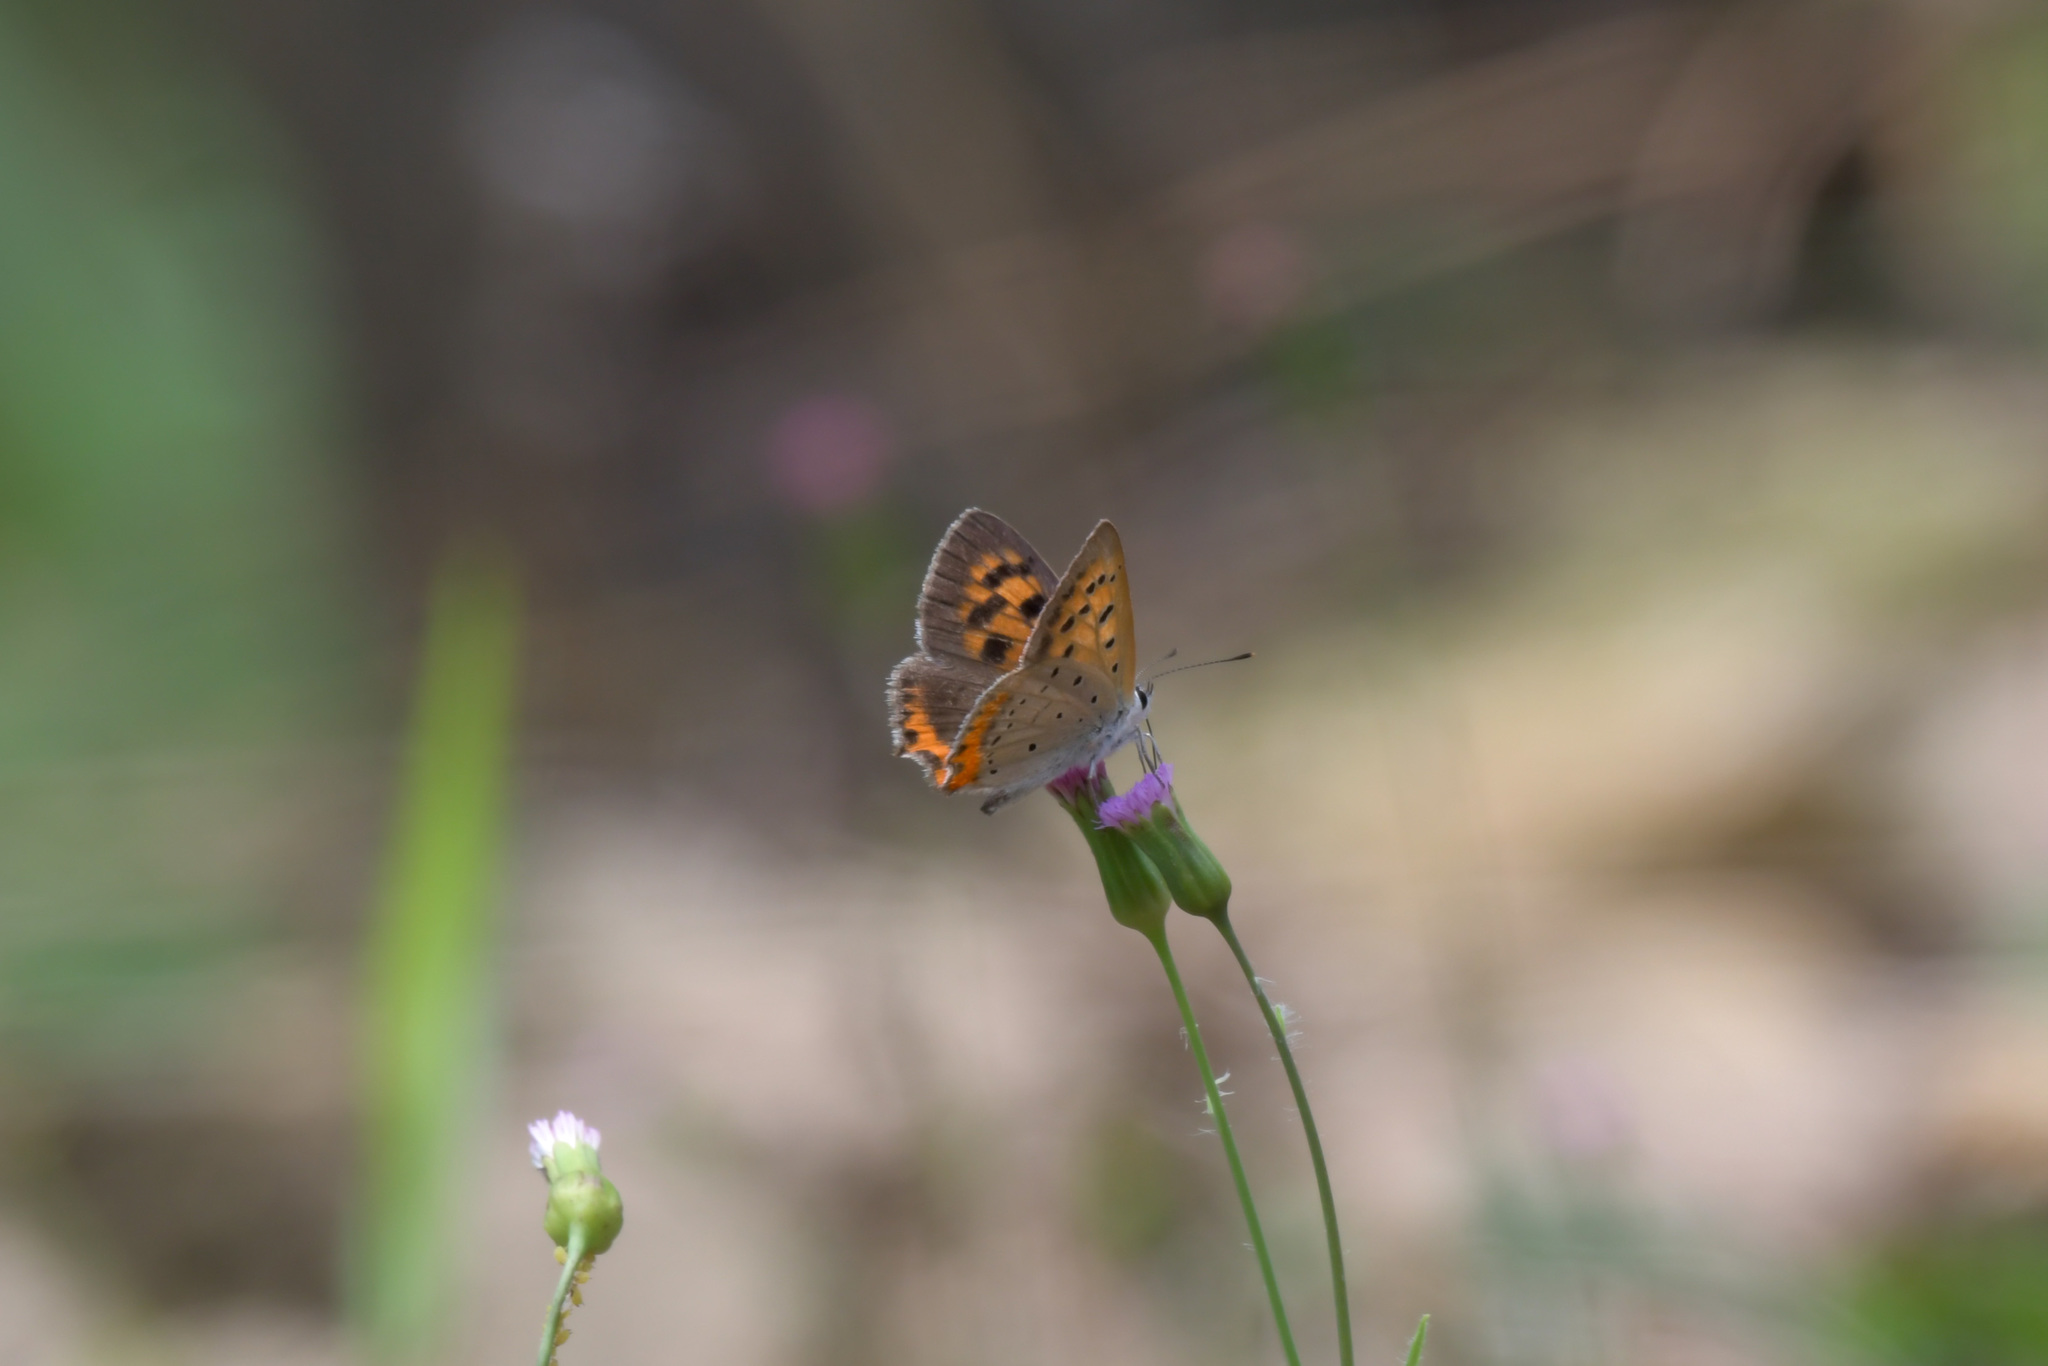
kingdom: Animalia
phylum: Arthropoda
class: Insecta
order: Lepidoptera
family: Lycaenidae
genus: Lycaena
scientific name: Lycaena phlaeas
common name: Small copper
